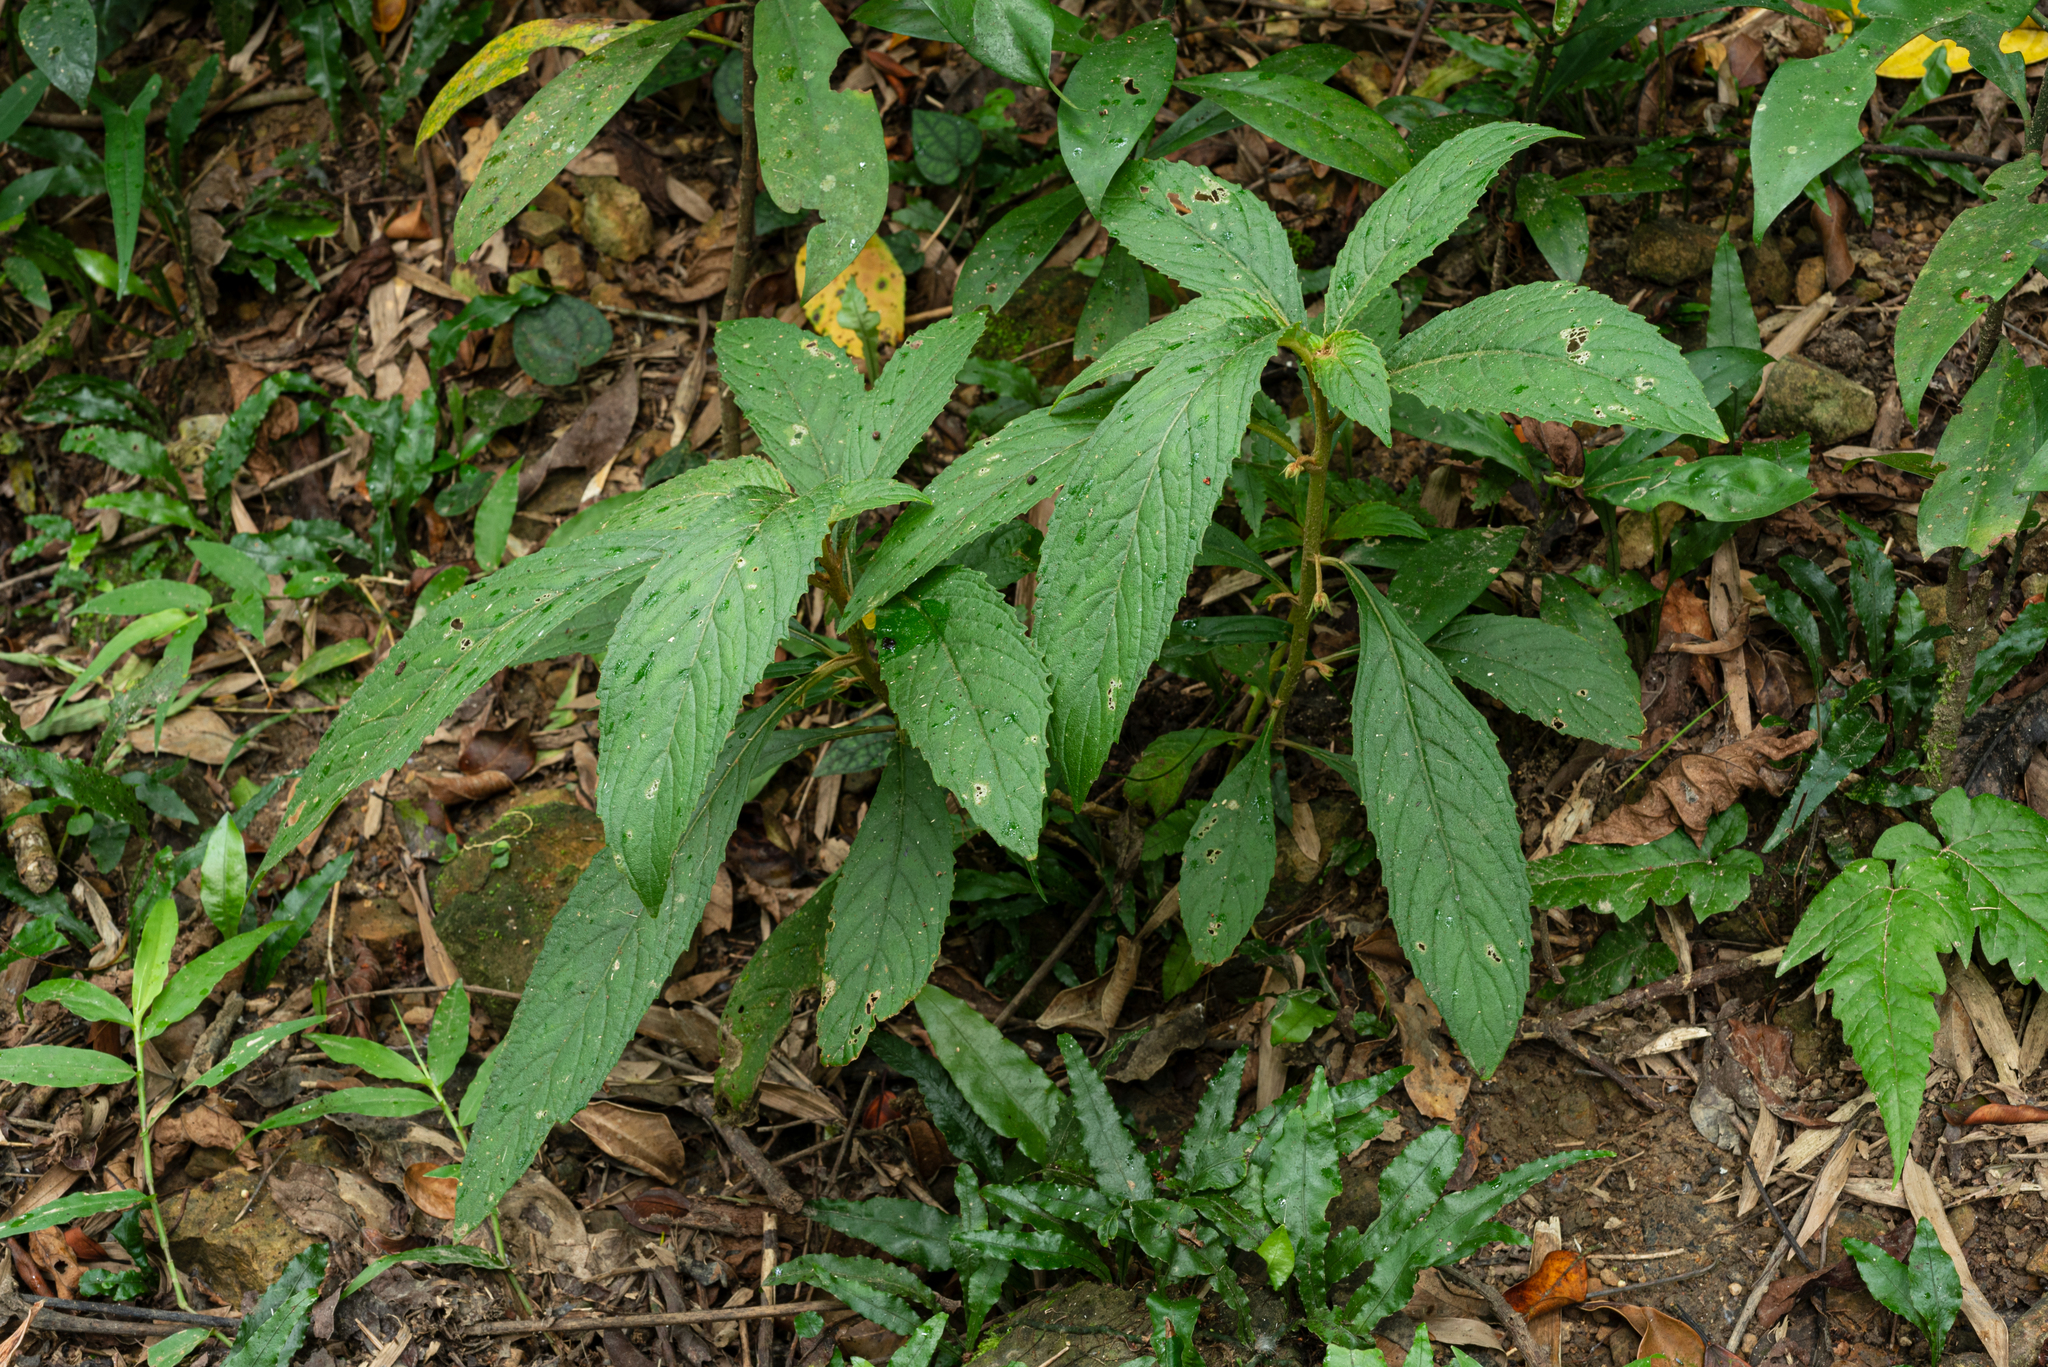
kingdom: Plantae
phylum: Tracheophyta
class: Magnoliopsida
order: Lamiales
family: Gesneriaceae
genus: Rhynchotechum
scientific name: Rhynchotechum discolor
